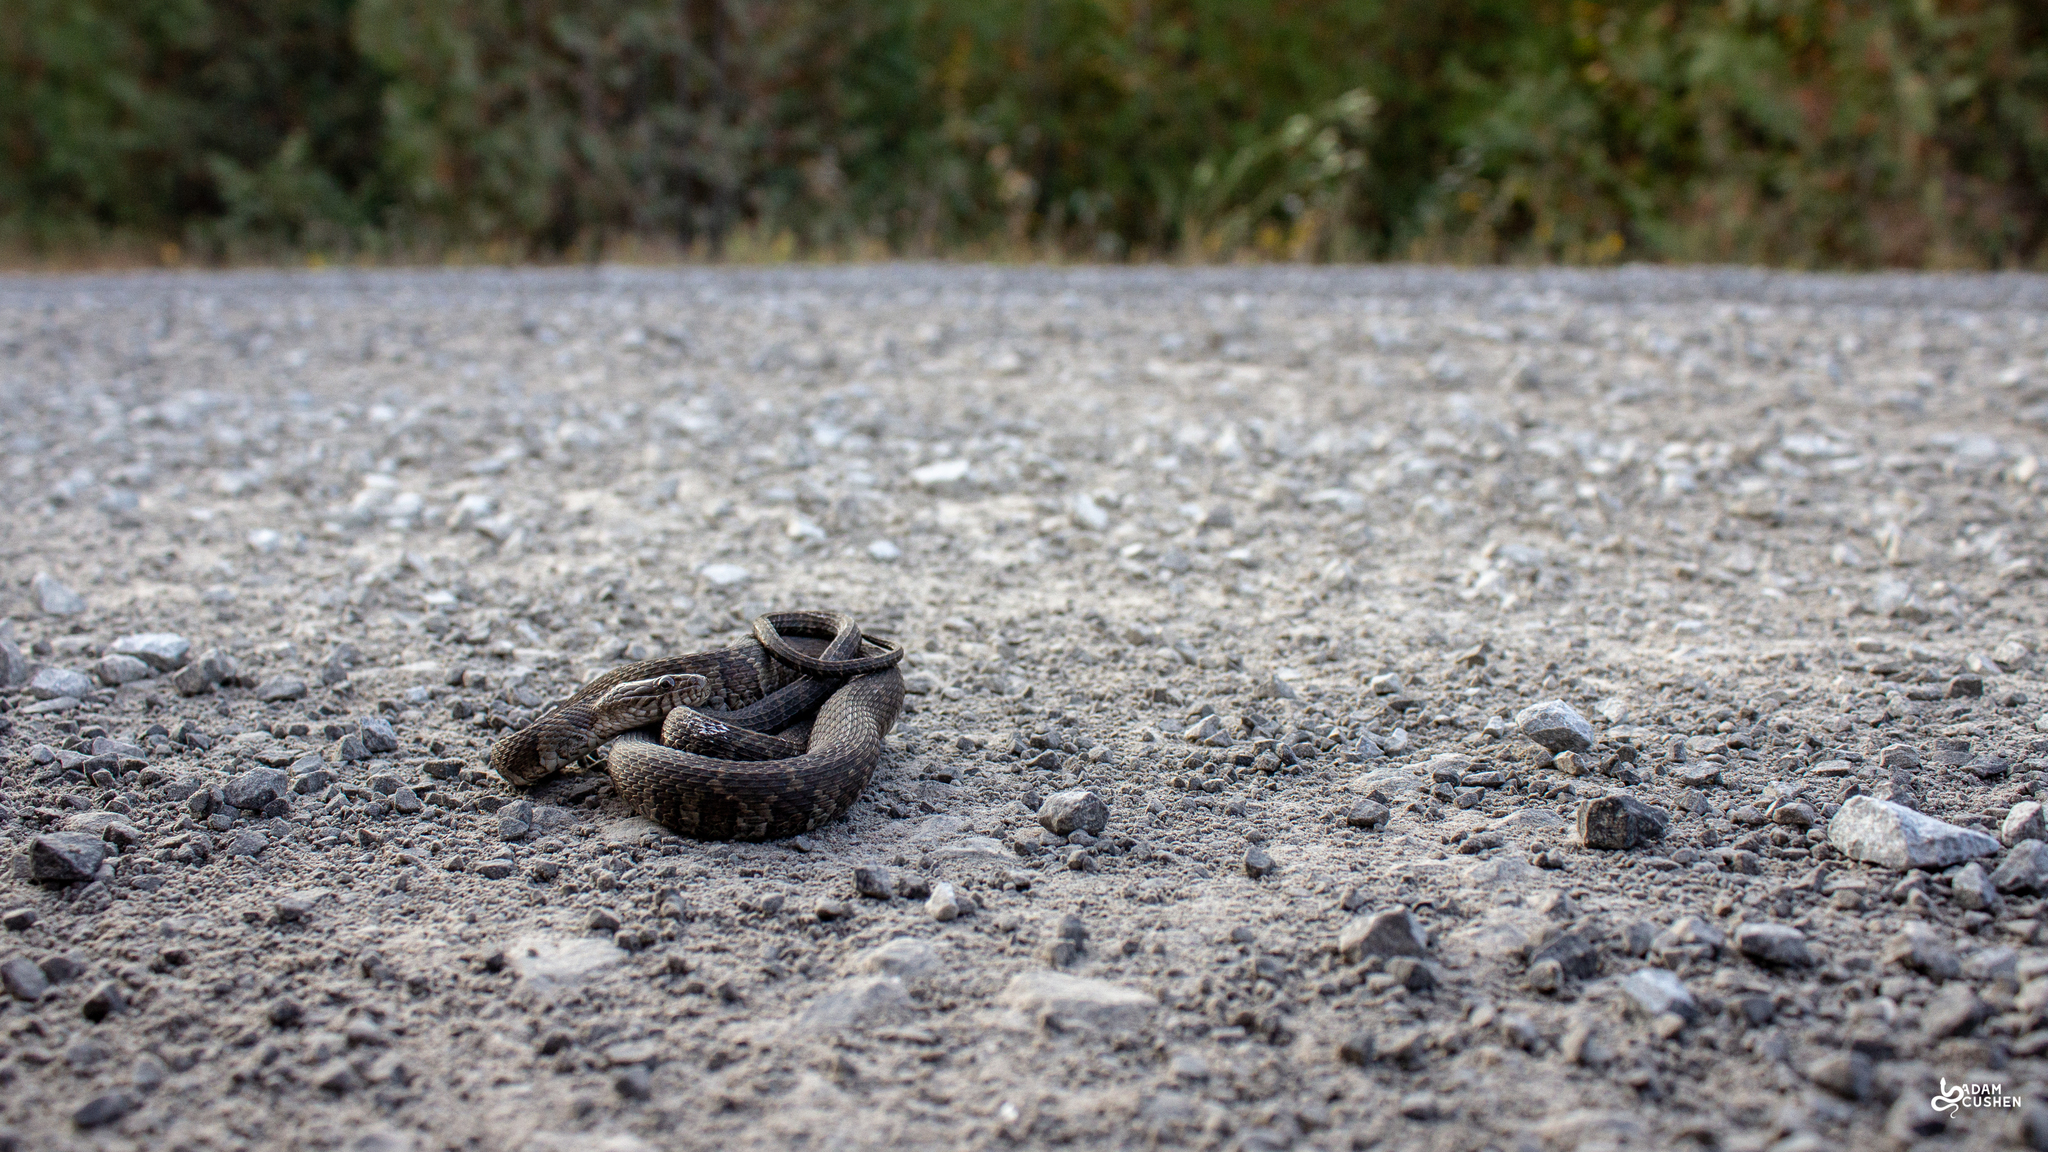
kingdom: Animalia
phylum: Chordata
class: Squamata
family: Colubridae
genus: Nerodia
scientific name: Nerodia sipedon
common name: Northern water snake
